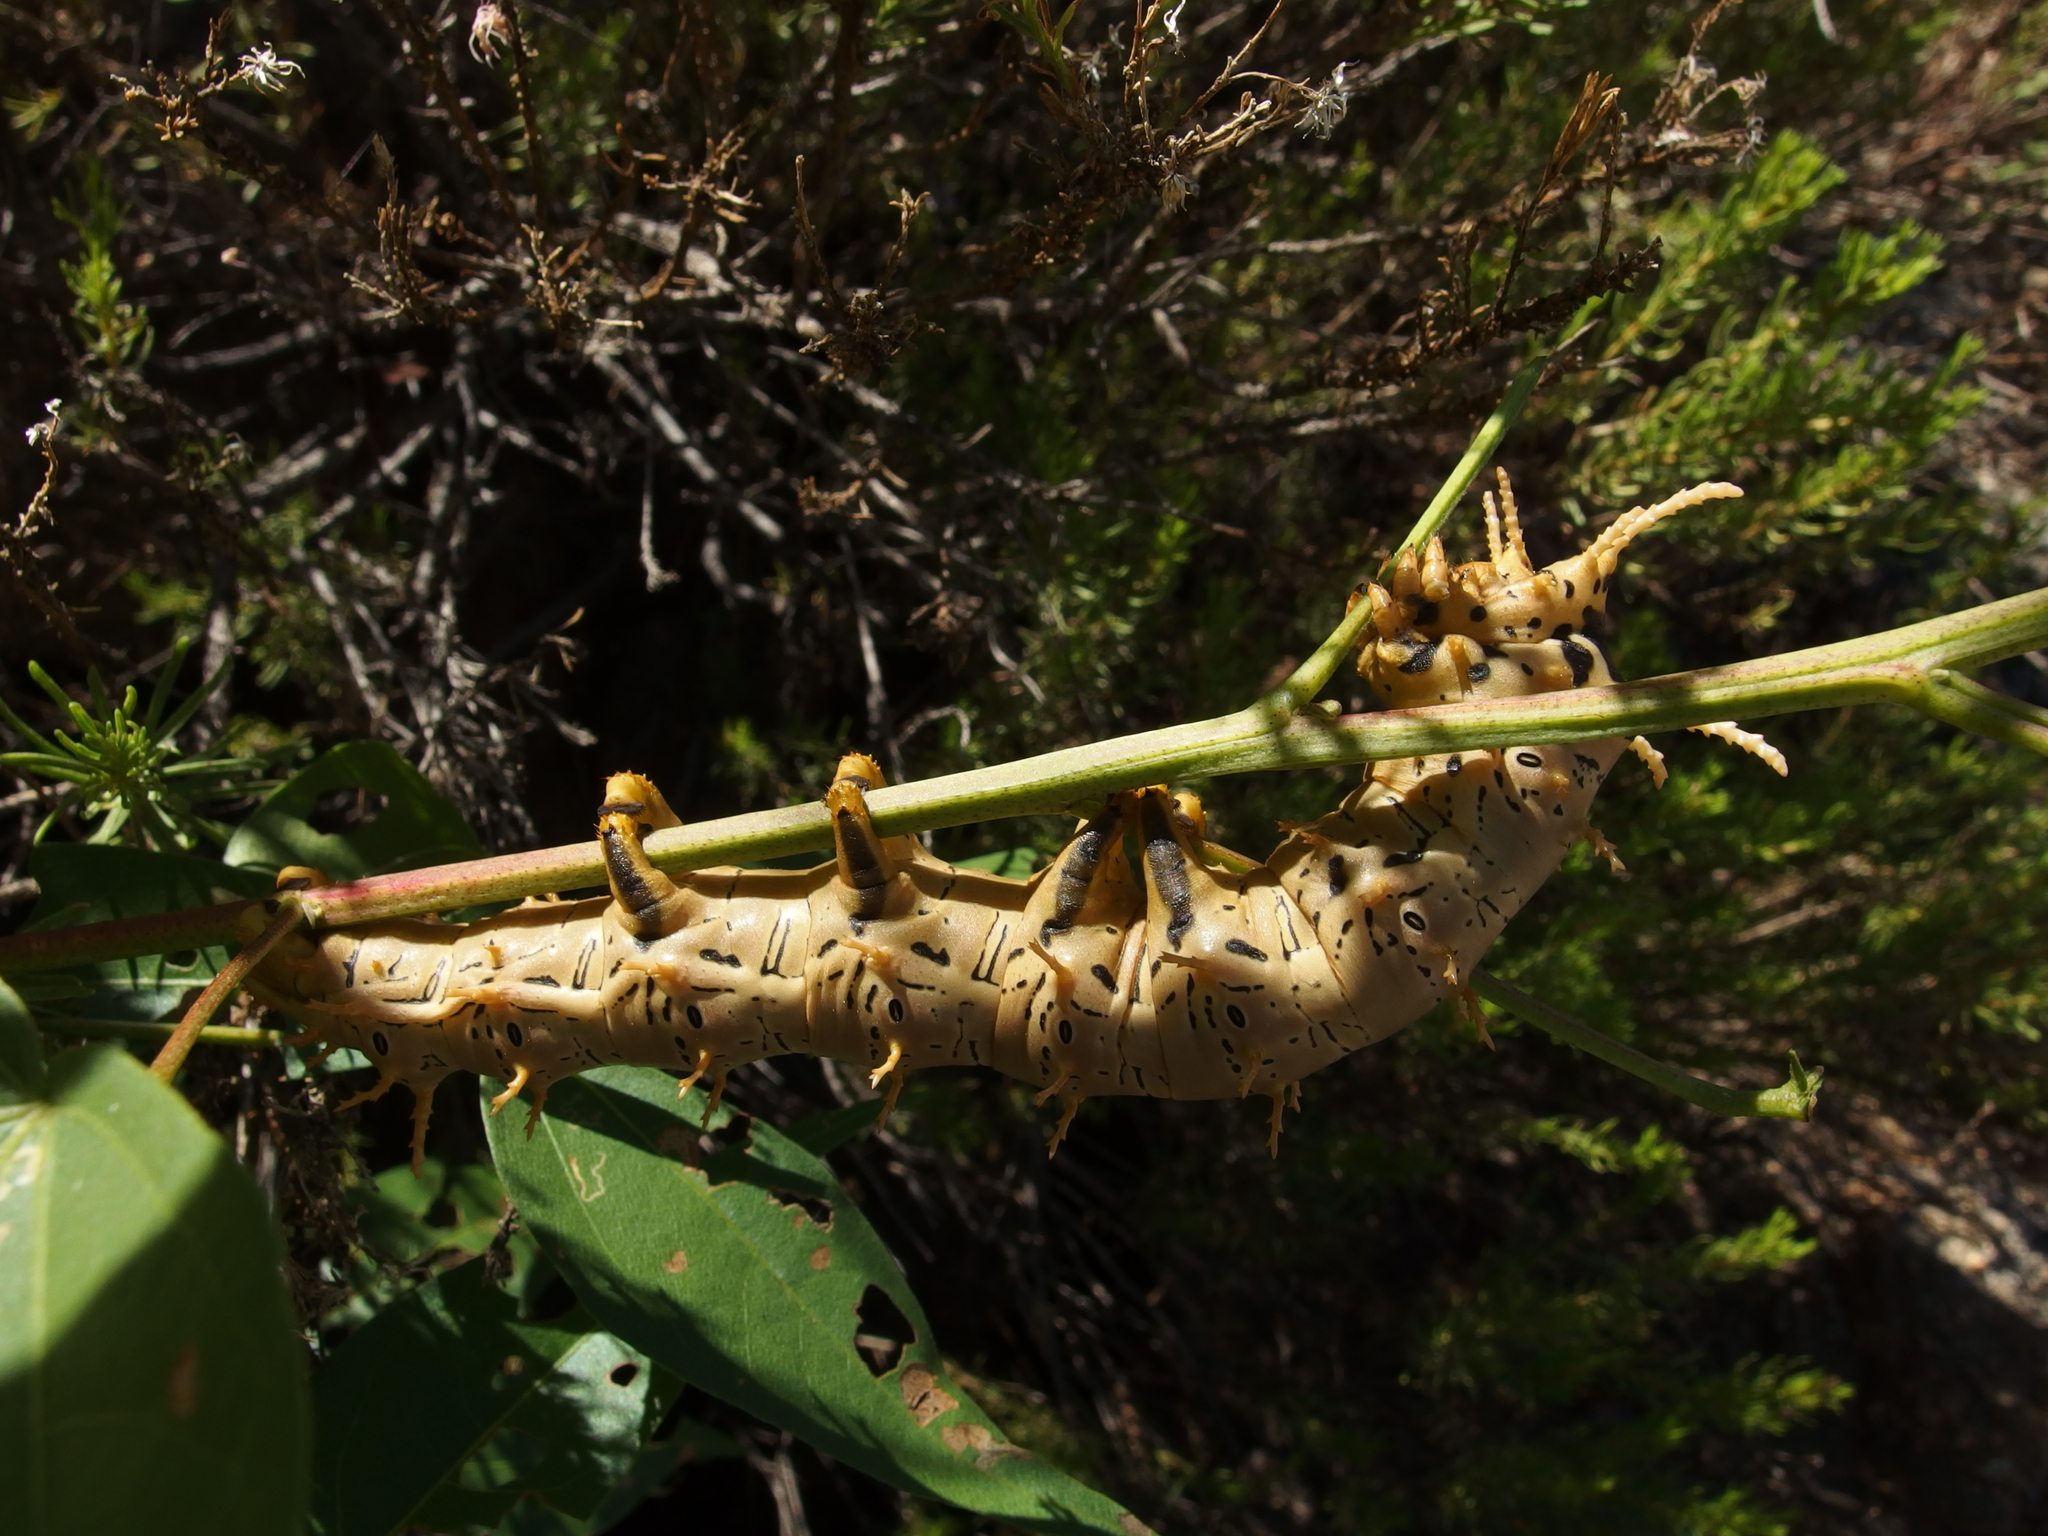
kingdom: Animalia
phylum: Arthropoda
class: Insecta
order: Lepidoptera
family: Saturniidae
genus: Citheronia
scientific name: Citheronia splendens
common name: Splendid royal moth
